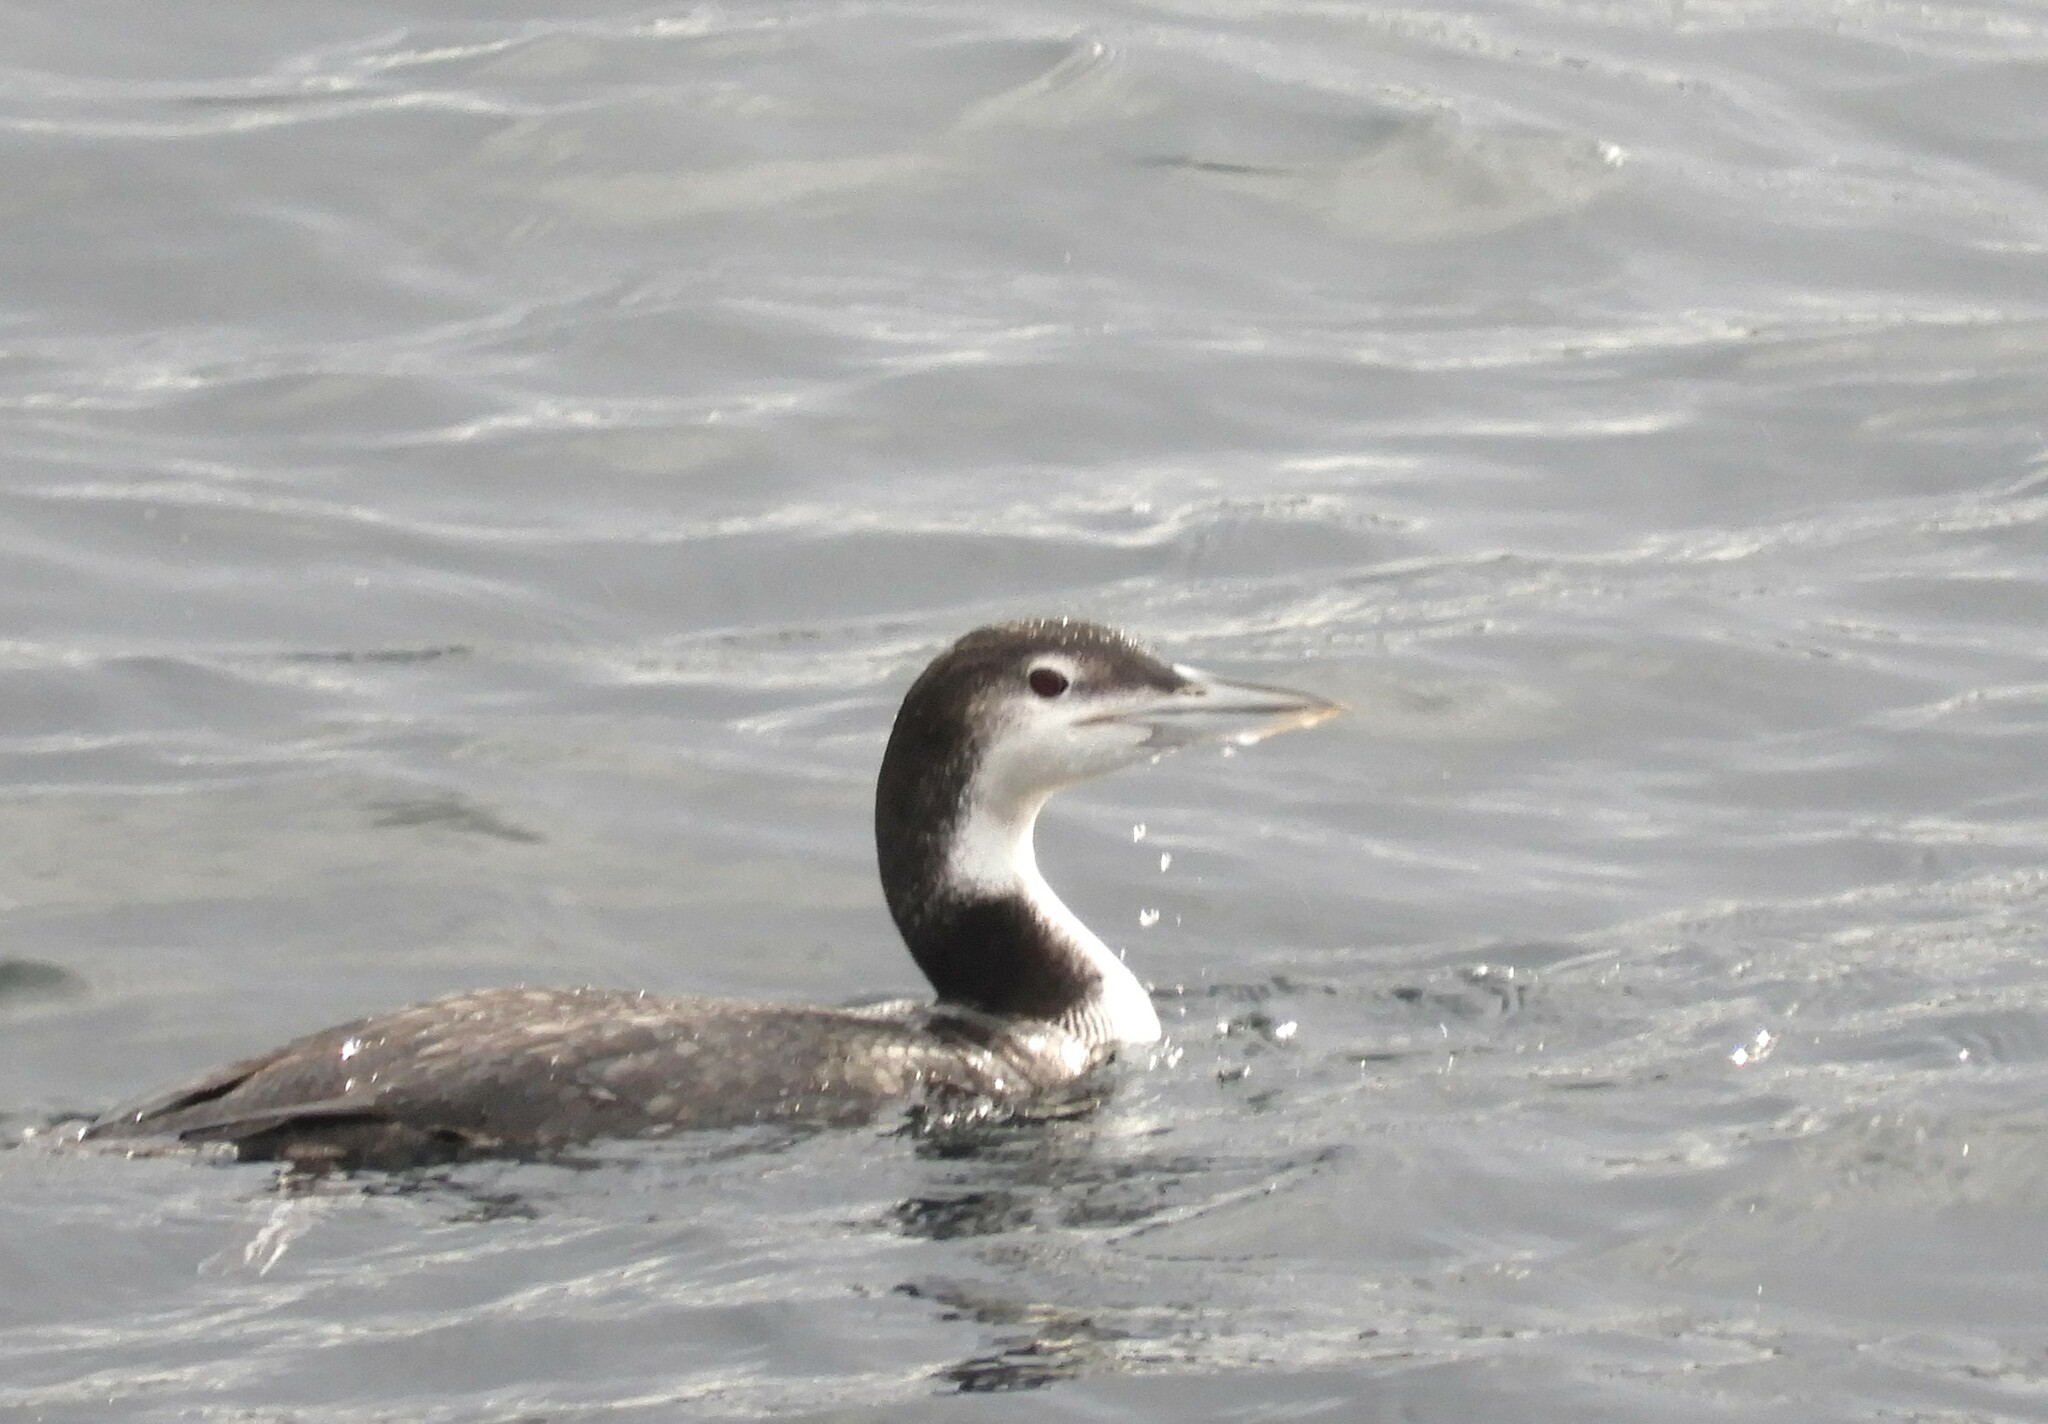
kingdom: Animalia
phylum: Chordata
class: Aves
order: Gaviiformes
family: Gaviidae
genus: Gavia
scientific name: Gavia immer
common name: Common loon
